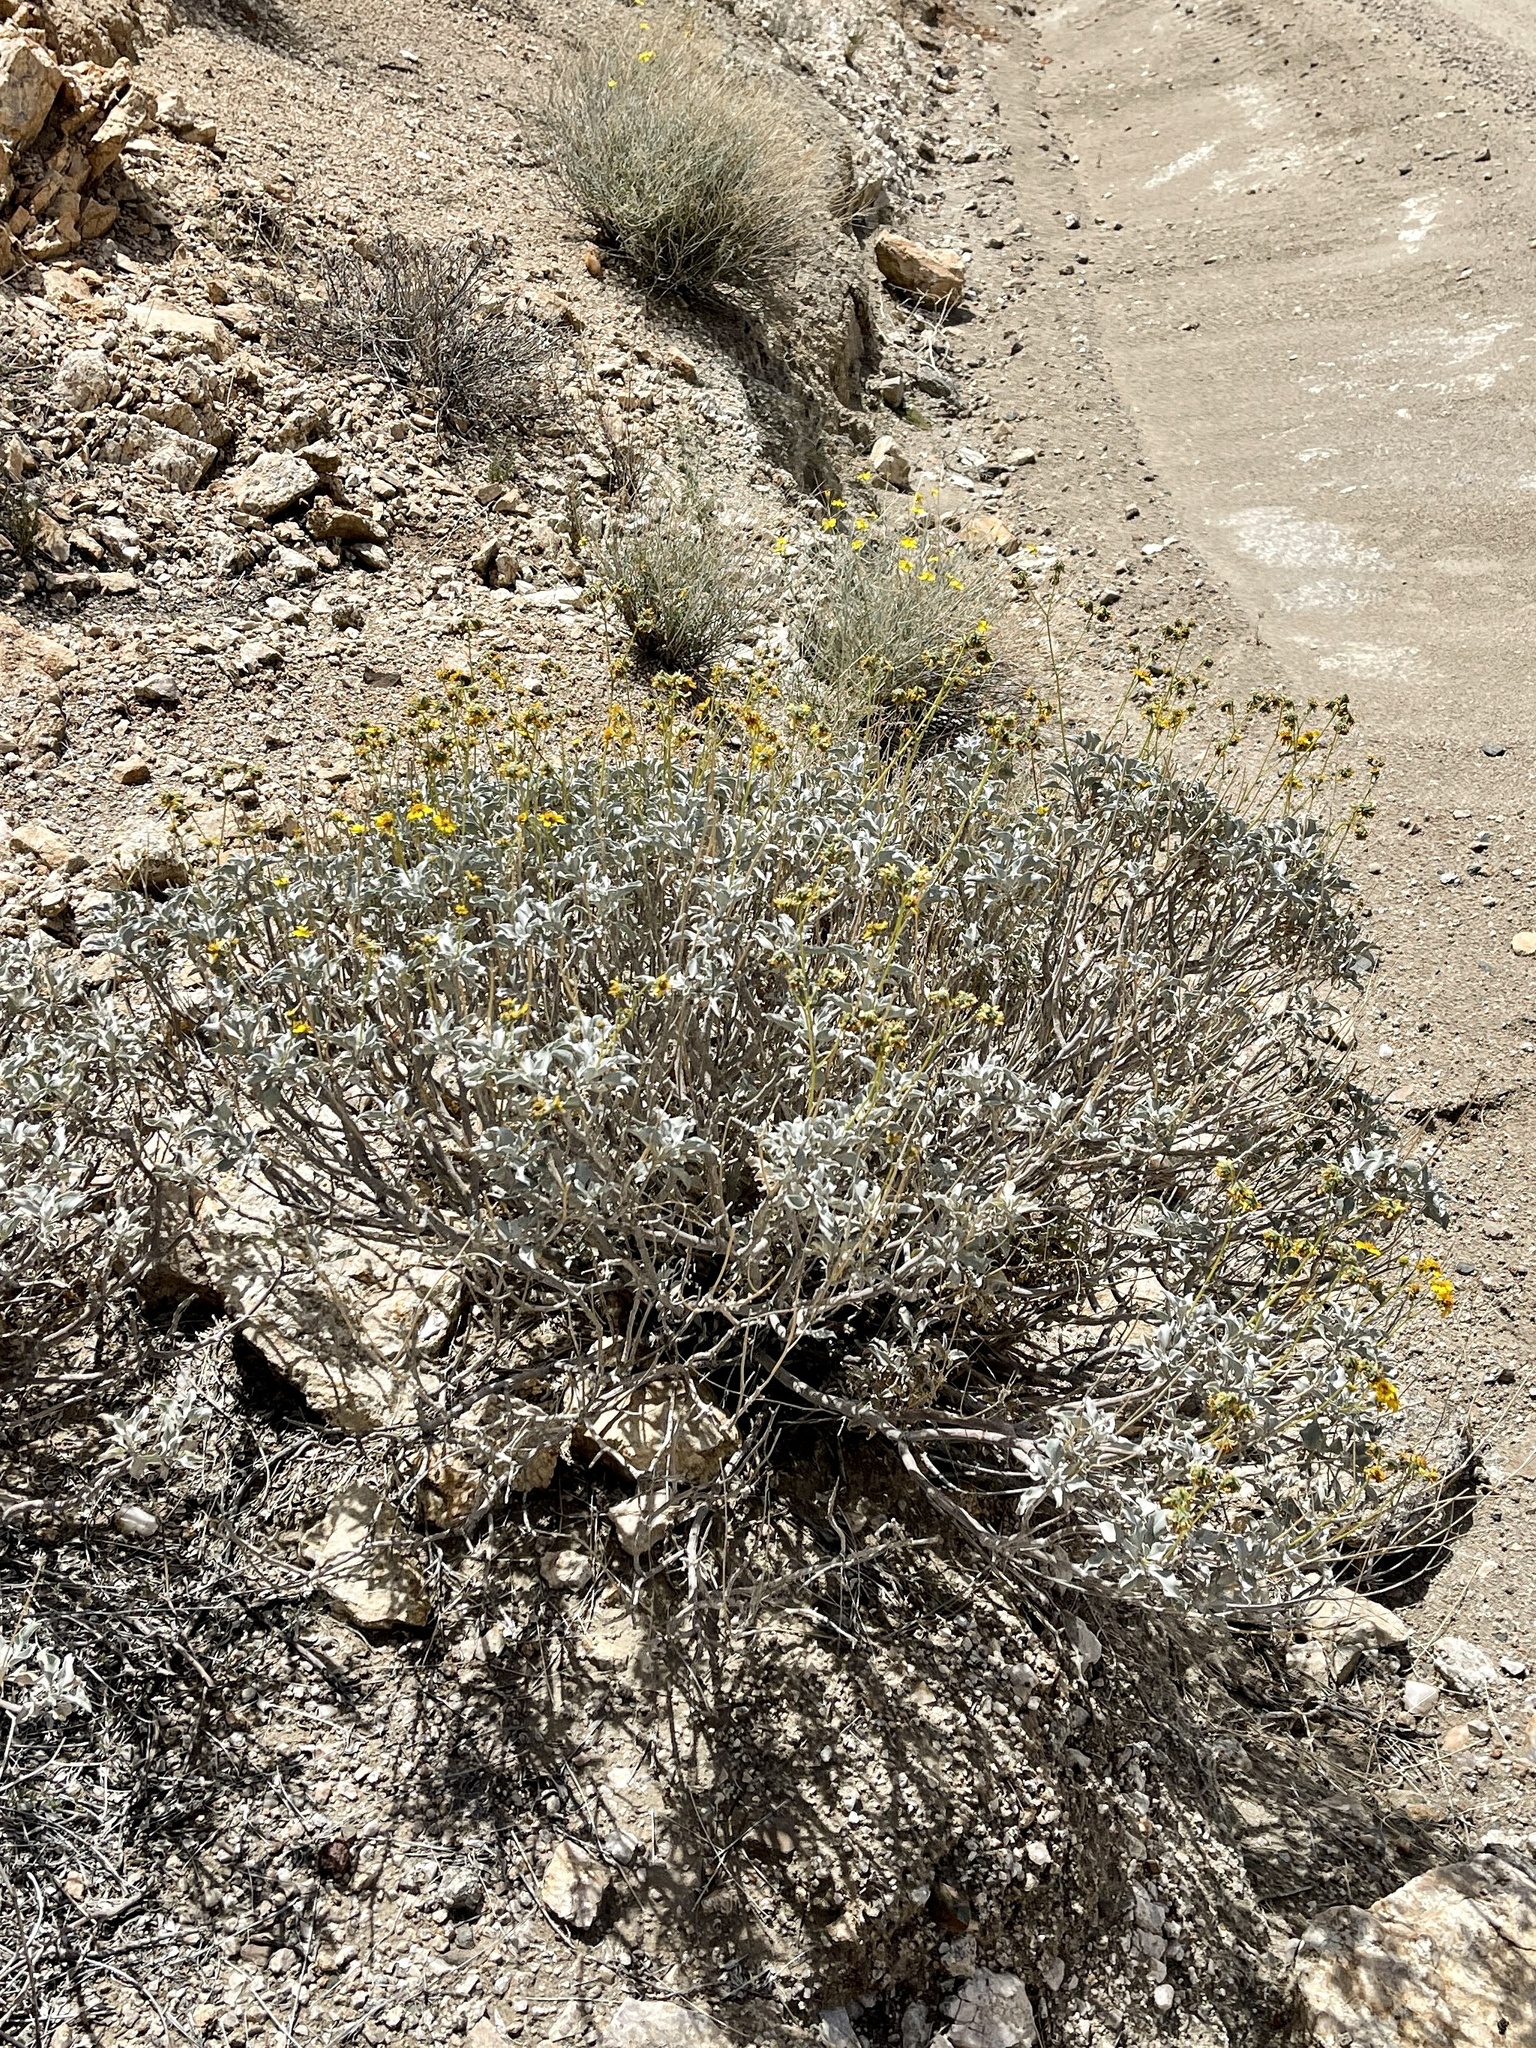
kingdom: Plantae
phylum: Tracheophyta
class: Magnoliopsida
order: Asterales
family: Asteraceae
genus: Encelia
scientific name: Encelia farinosa
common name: Brittlebush
